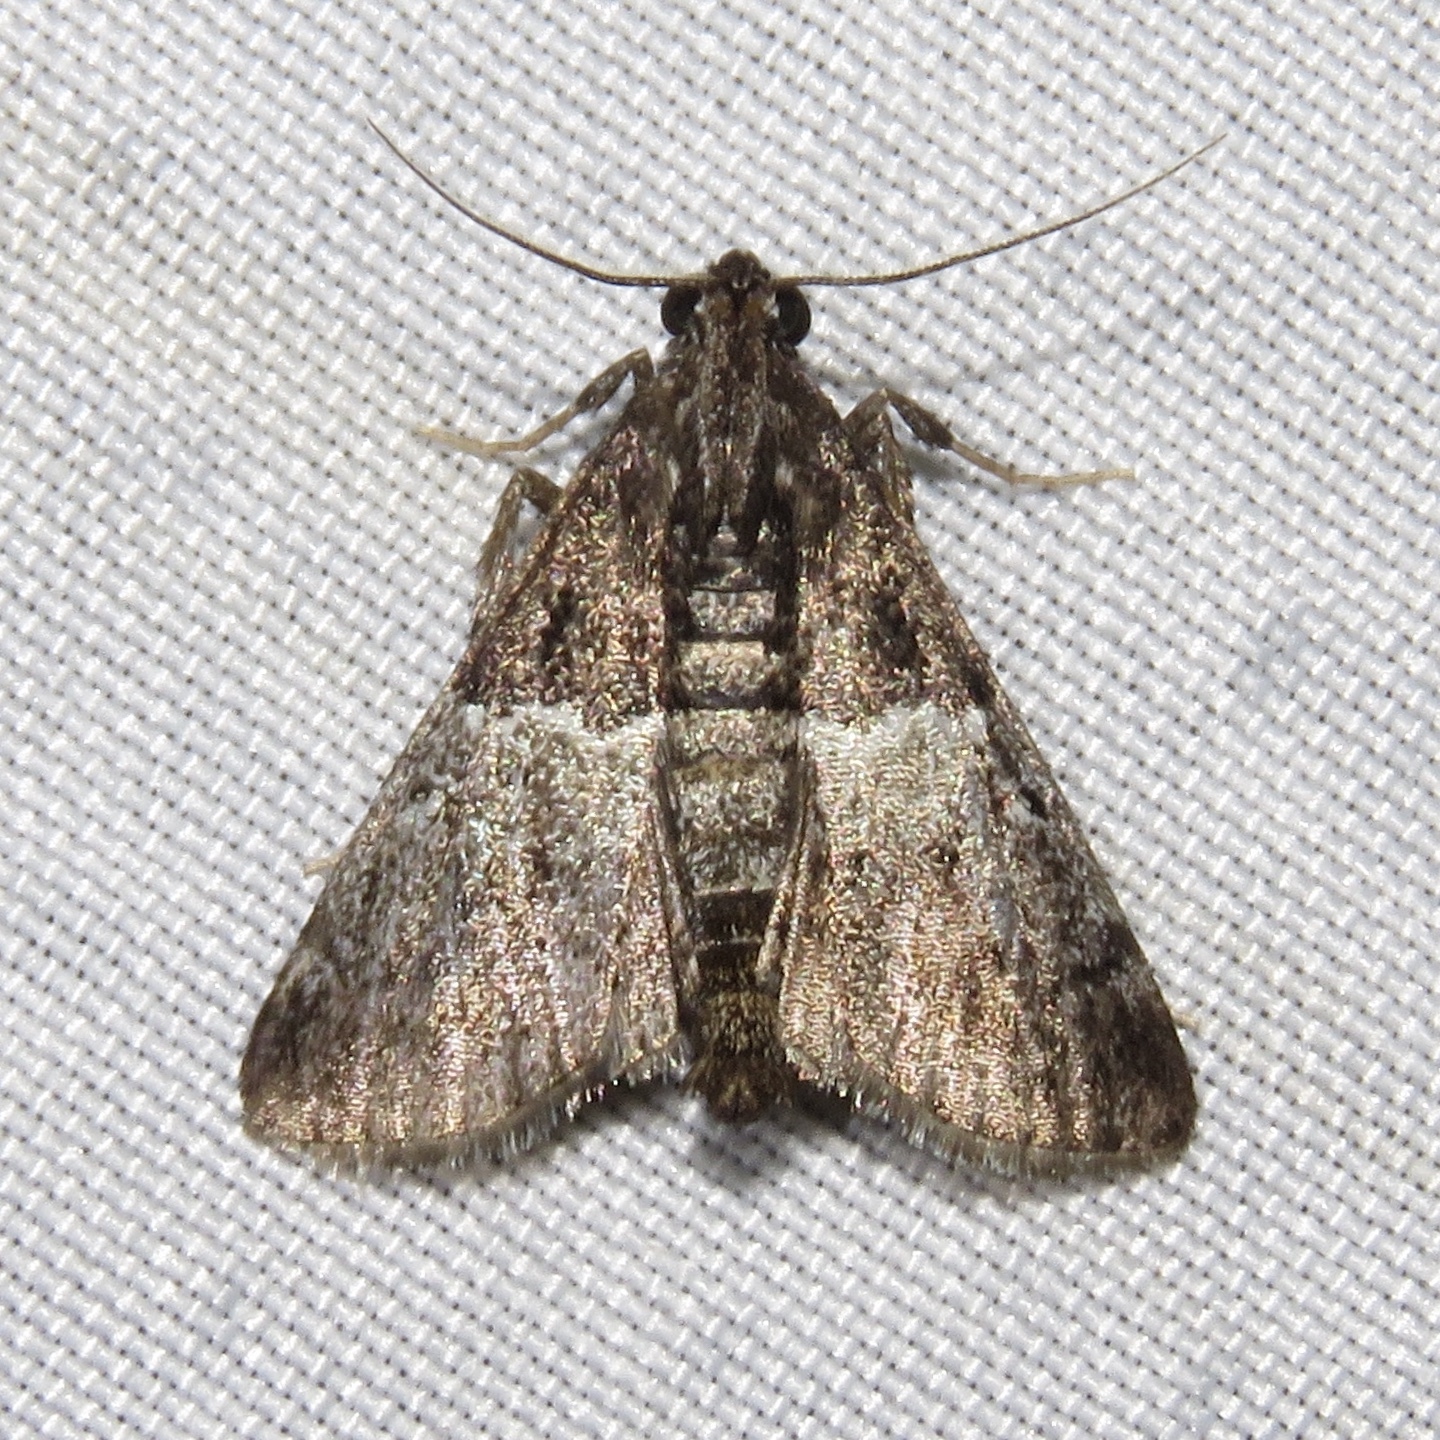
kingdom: Animalia
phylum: Arthropoda
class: Insecta
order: Lepidoptera
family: Pyralidae
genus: Macalla
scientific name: Macalla zelleri
